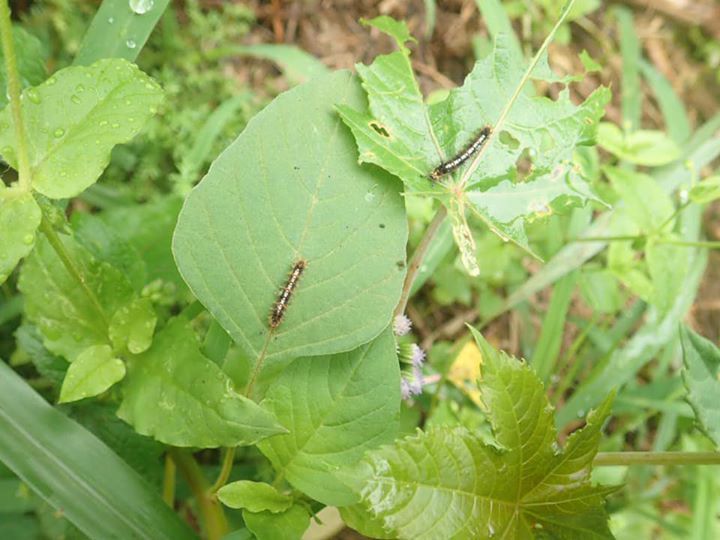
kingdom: Animalia
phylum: Arthropoda
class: Insecta
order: Lepidoptera
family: Nymphalidae
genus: Ariadne
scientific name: Ariadne ariadne
